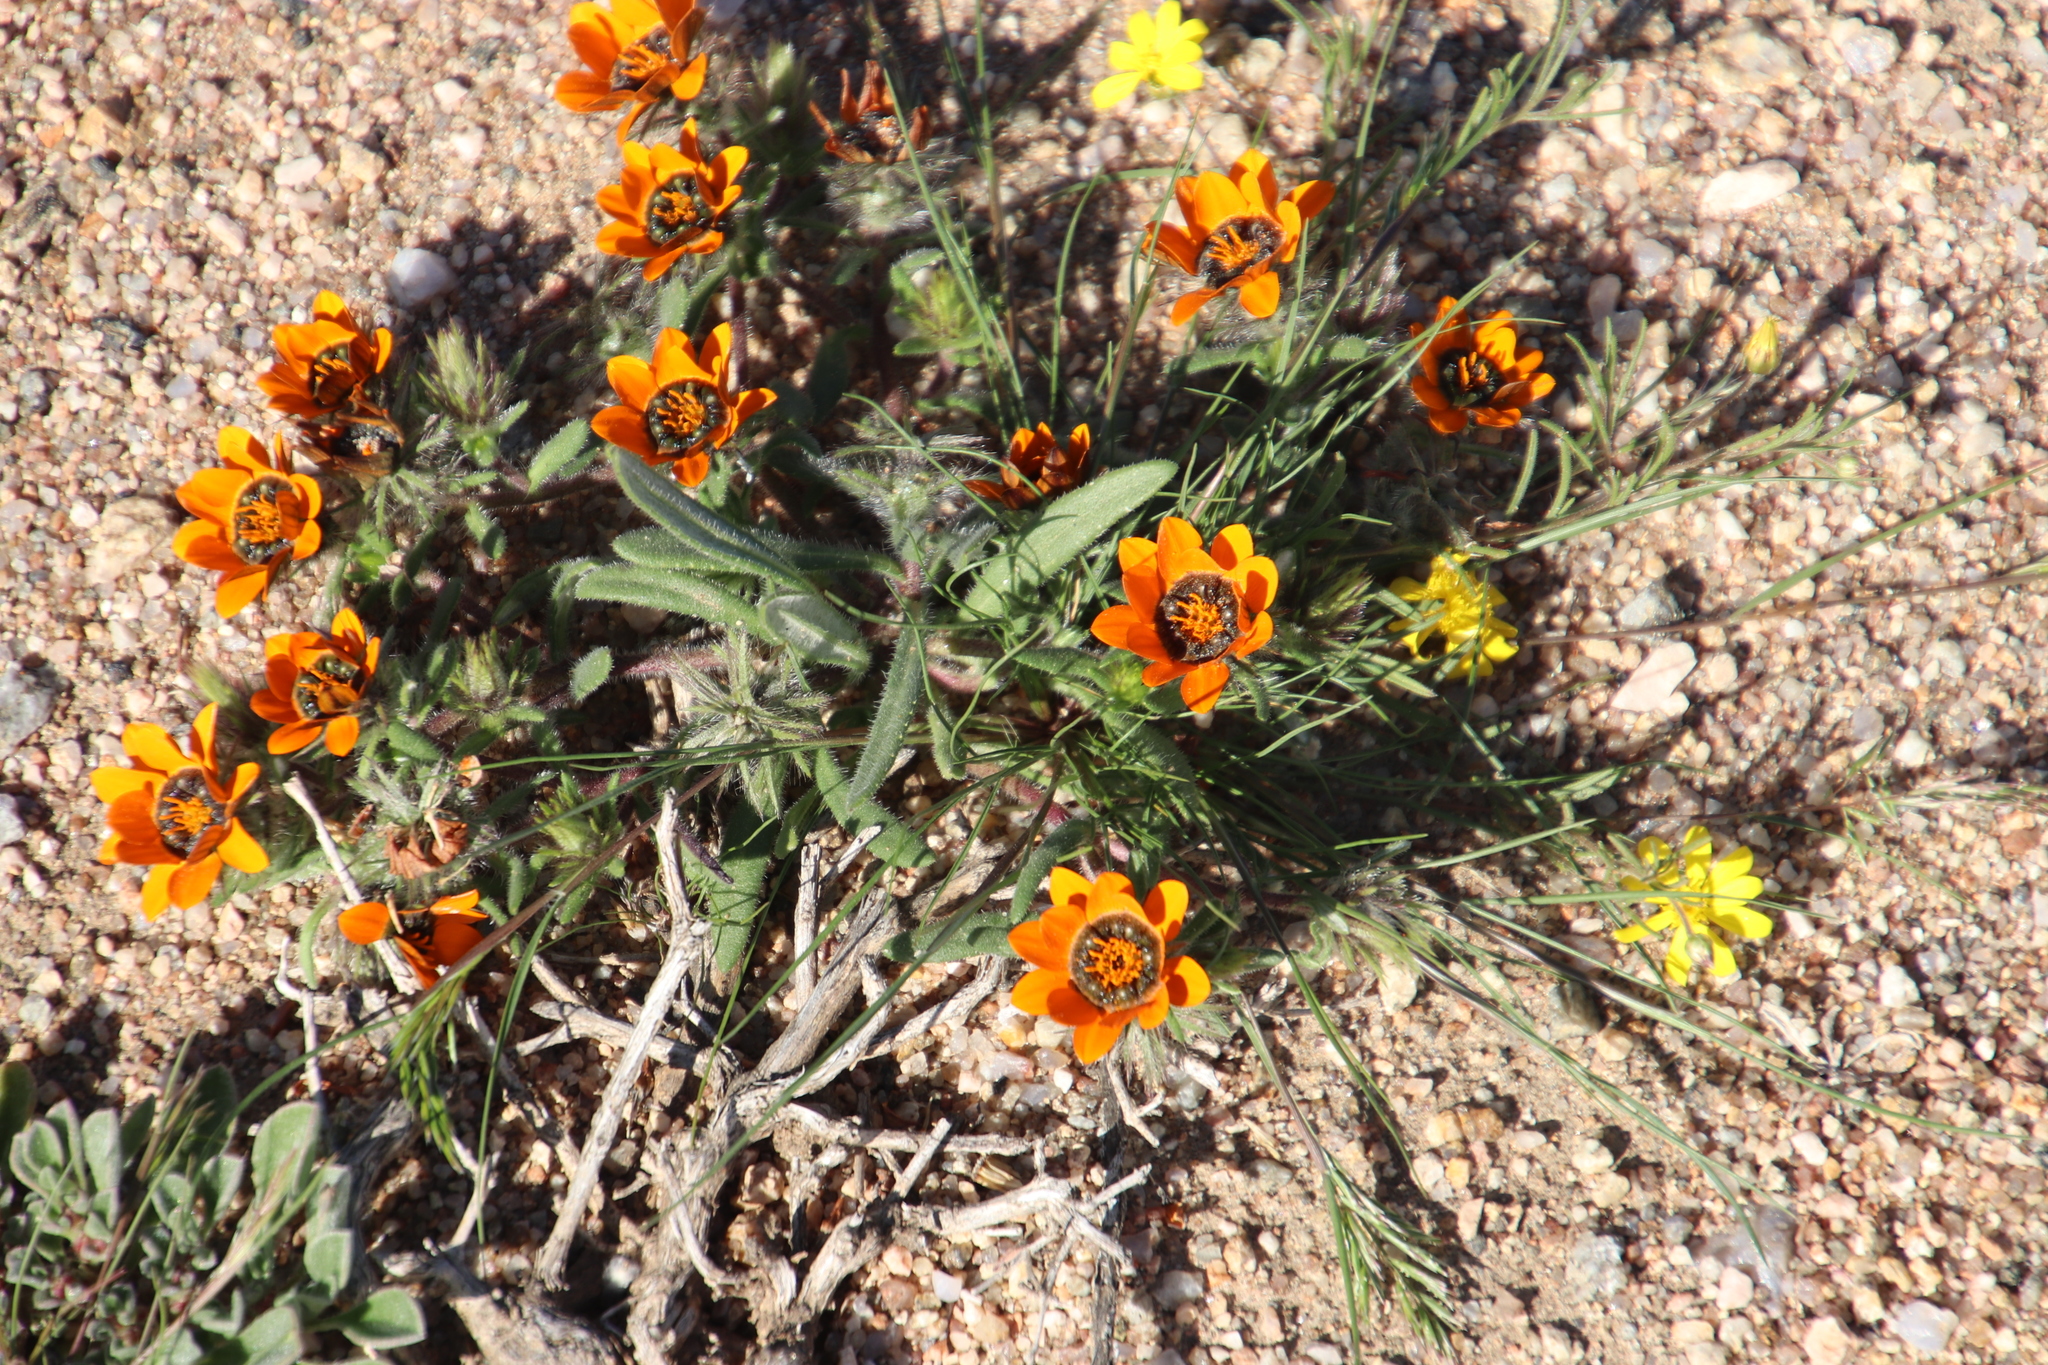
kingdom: Plantae
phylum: Tracheophyta
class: Magnoliopsida
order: Asterales
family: Asteraceae
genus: Gorteria
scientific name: Gorteria diffusa
